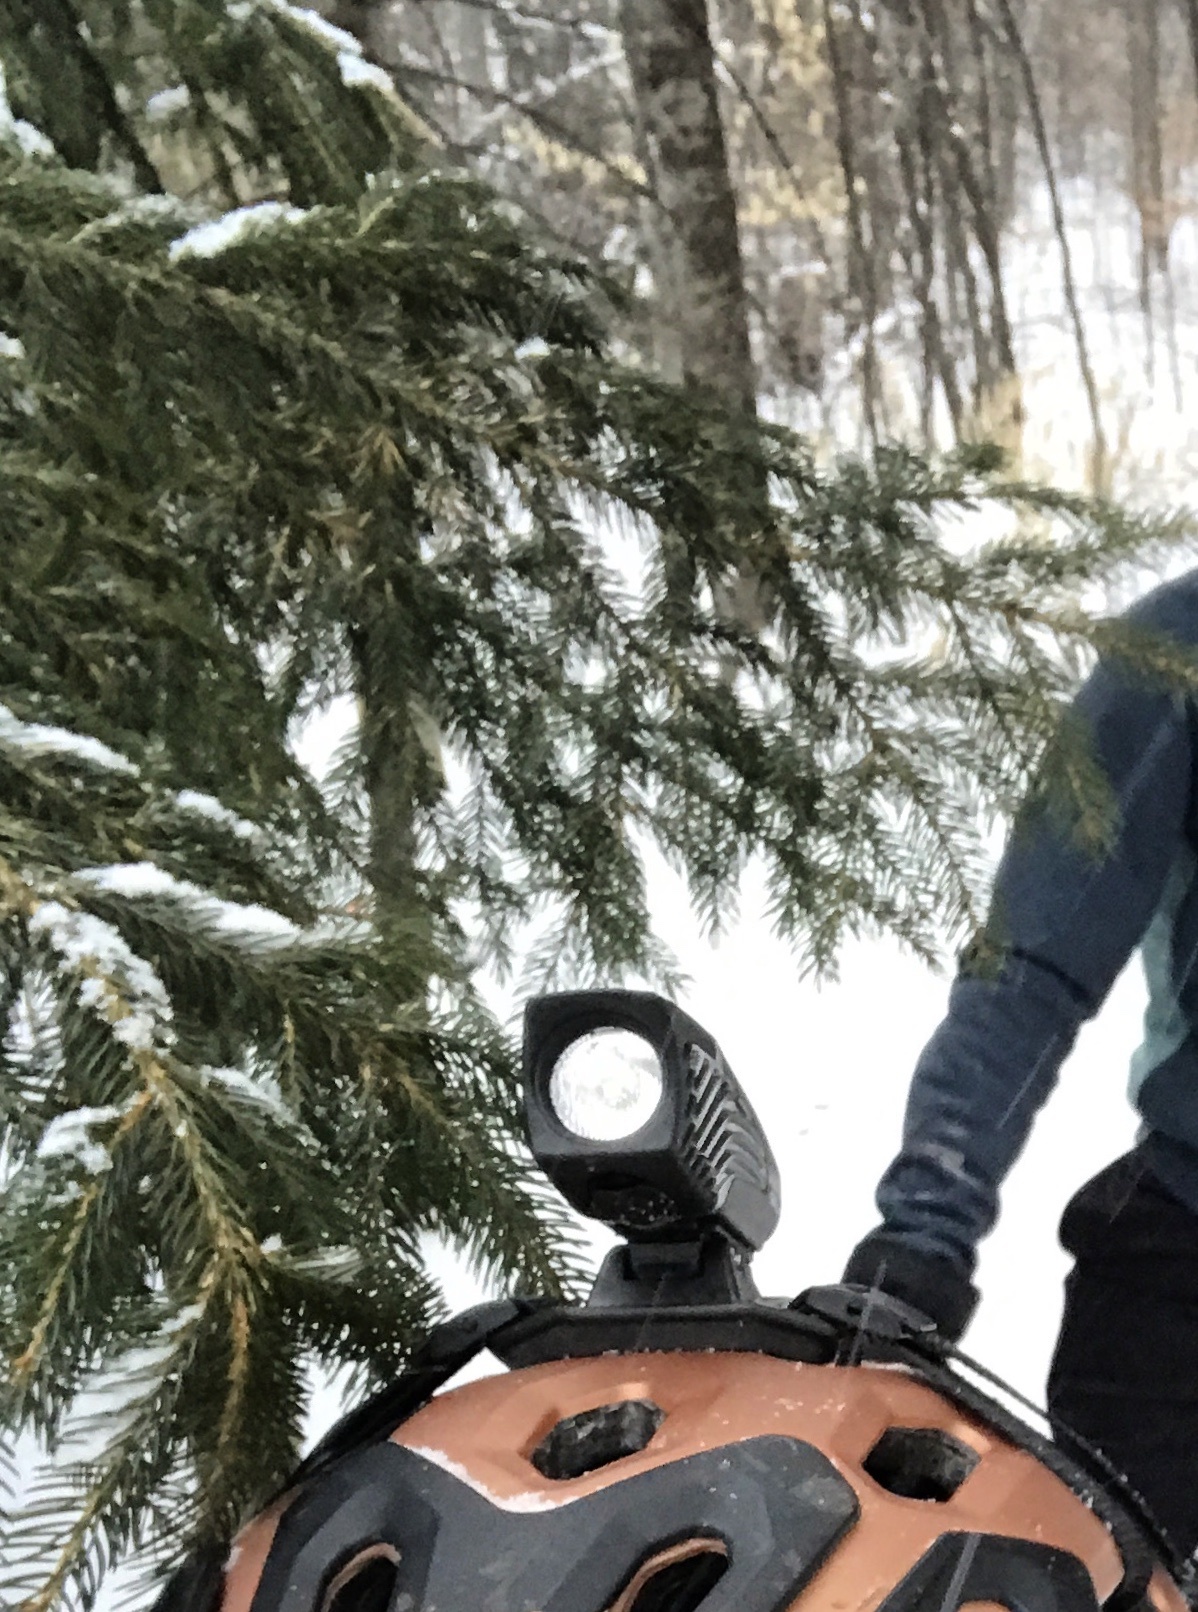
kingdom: Plantae
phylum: Tracheophyta
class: Pinopsida
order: Pinales
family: Pinaceae
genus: Picea
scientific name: Picea rubens
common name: Red spruce
